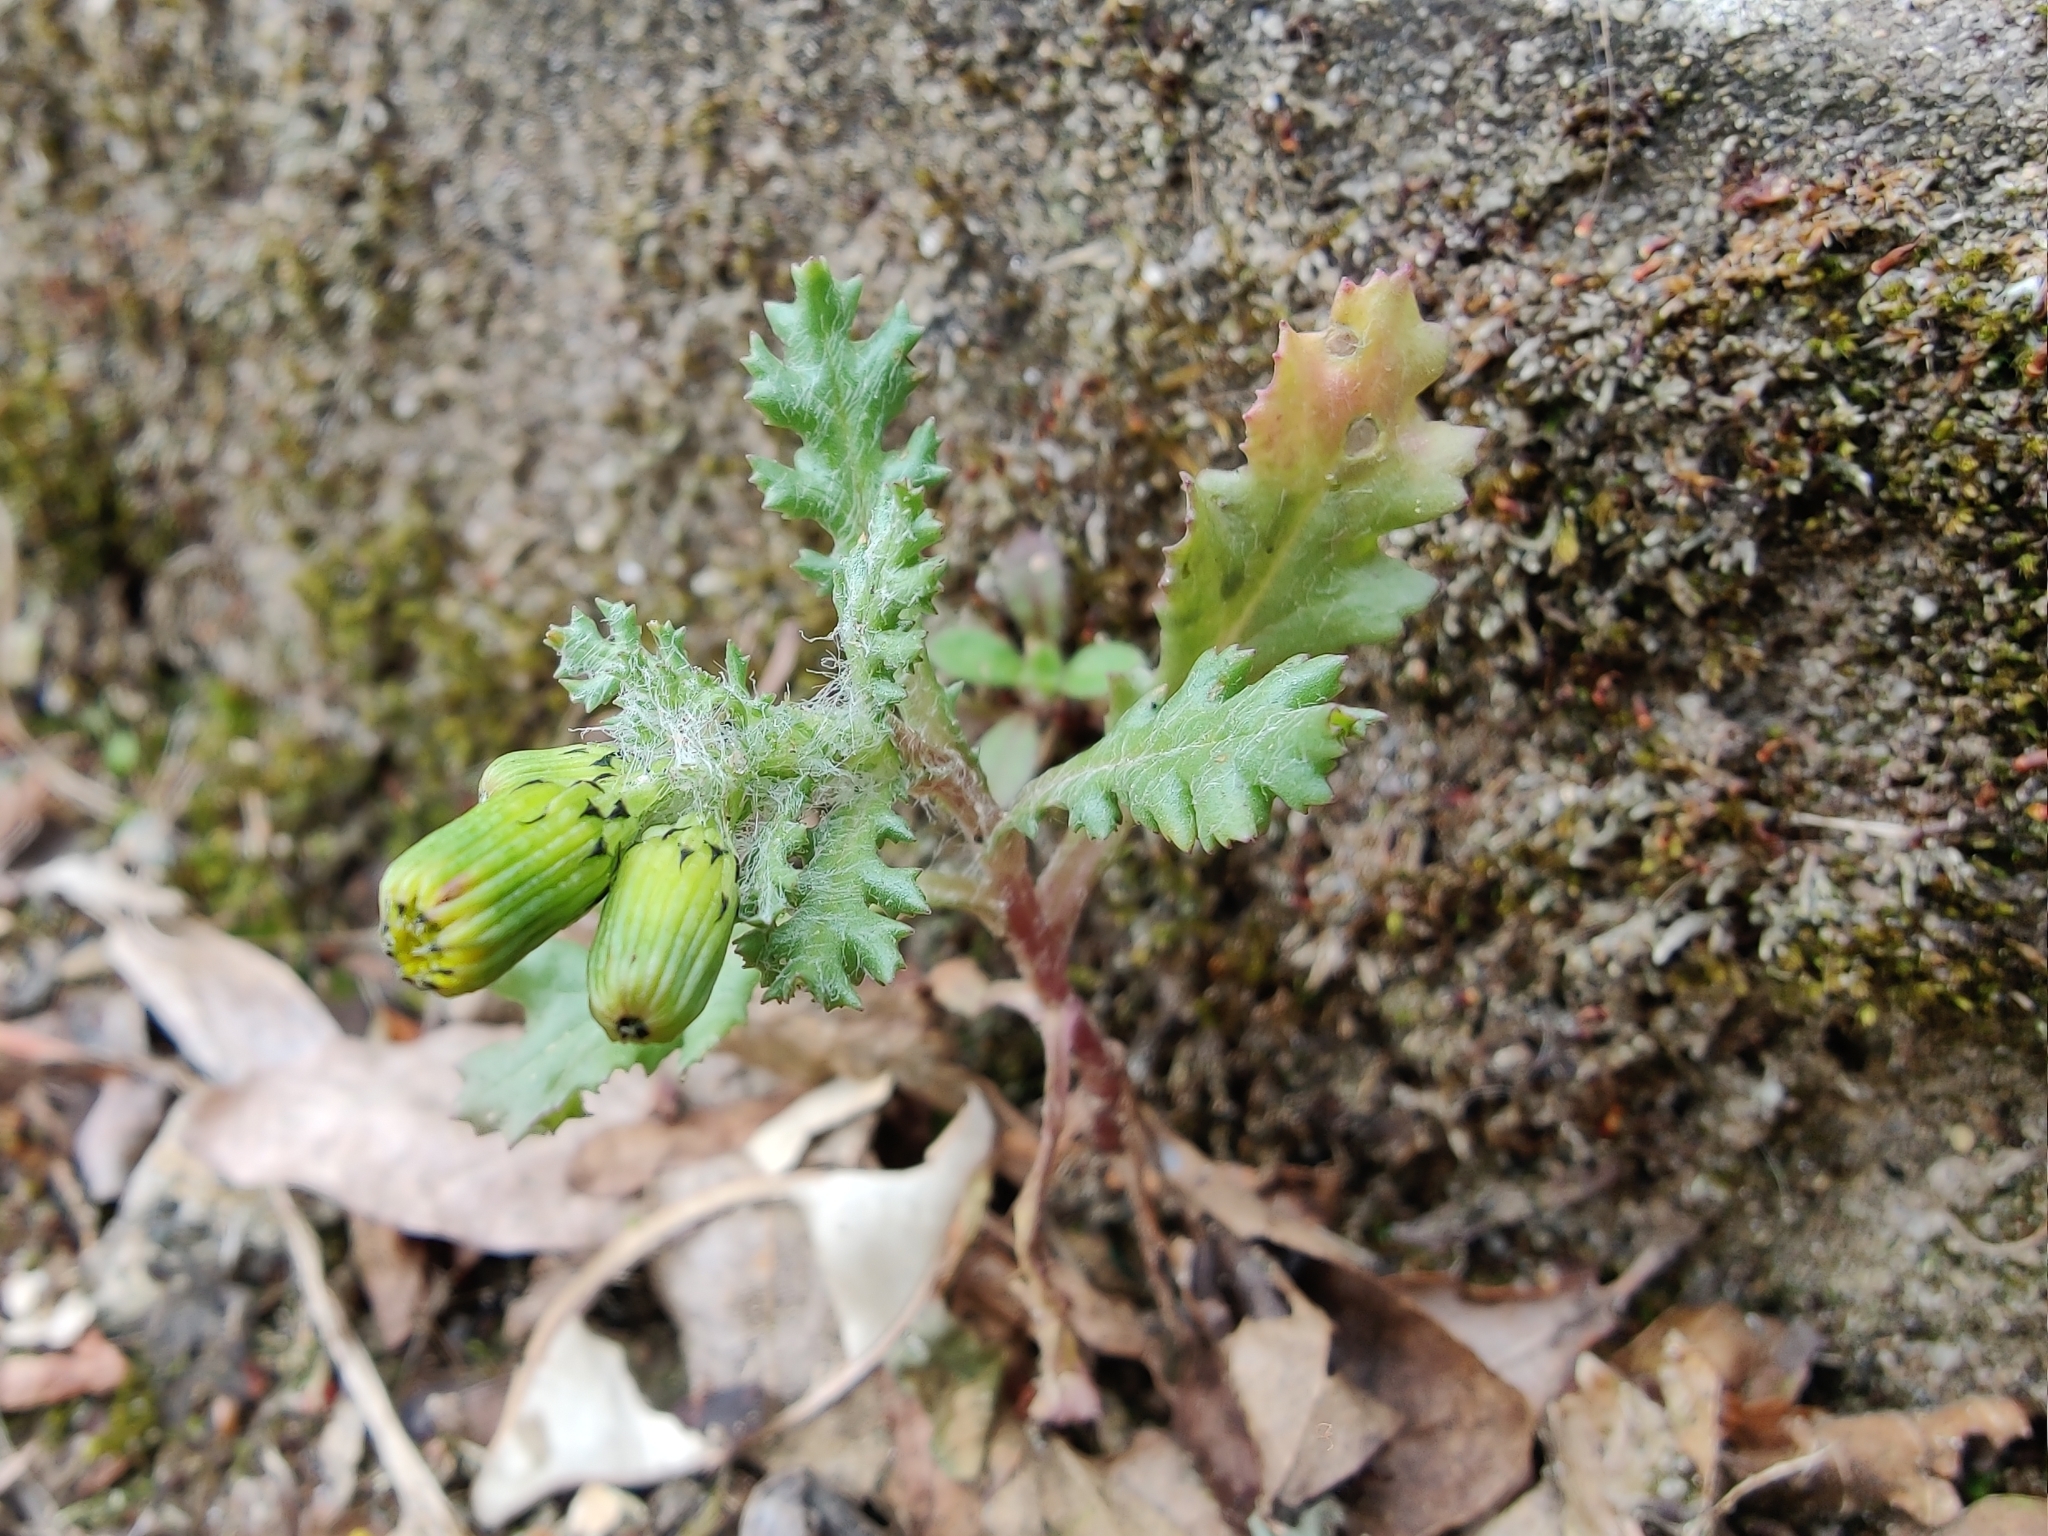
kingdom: Plantae
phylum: Tracheophyta
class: Magnoliopsida
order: Asterales
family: Asteraceae
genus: Senecio
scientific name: Senecio vulgaris
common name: Old-man-in-the-spring
